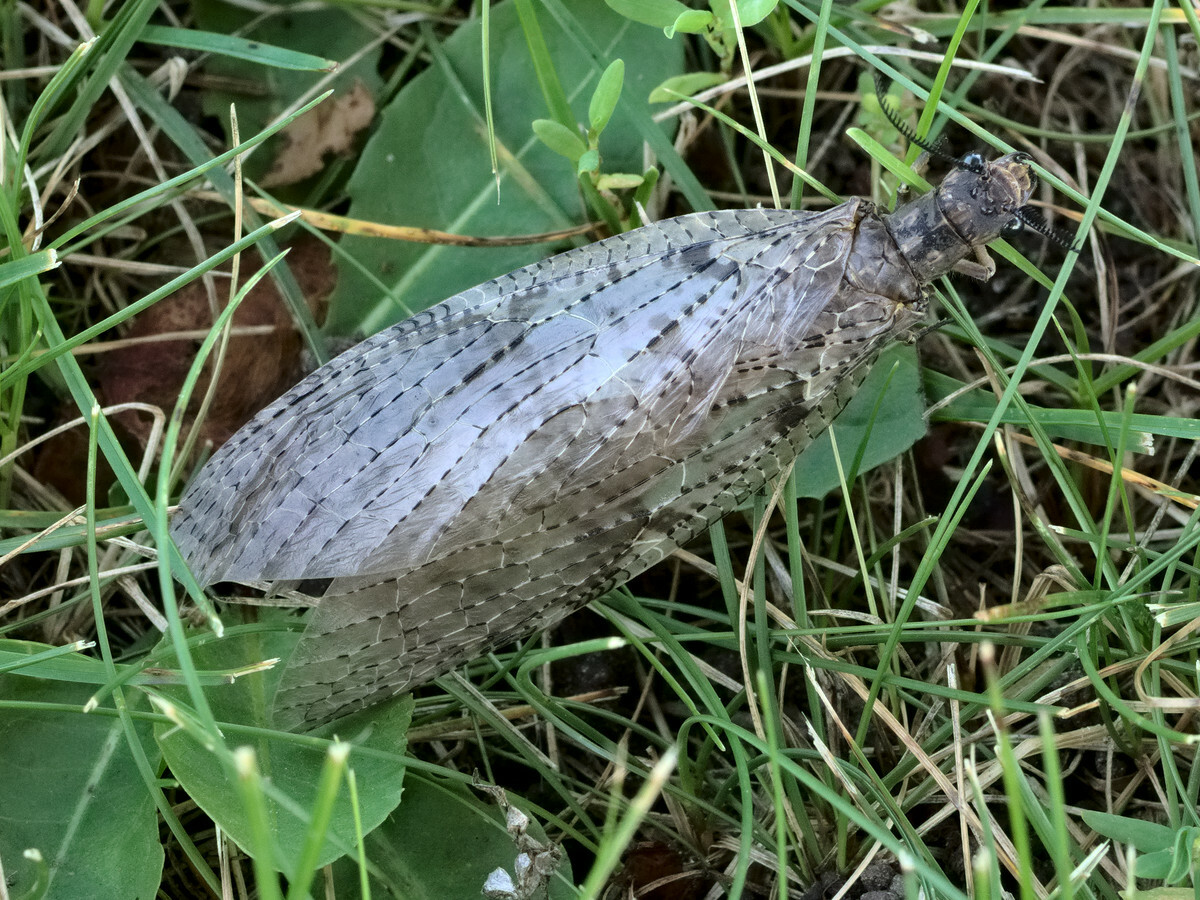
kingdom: Animalia
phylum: Arthropoda
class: Insecta
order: Megaloptera
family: Corydalidae
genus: Chauliodes
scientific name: Chauliodes pectinicornis
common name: Summer fishfly
